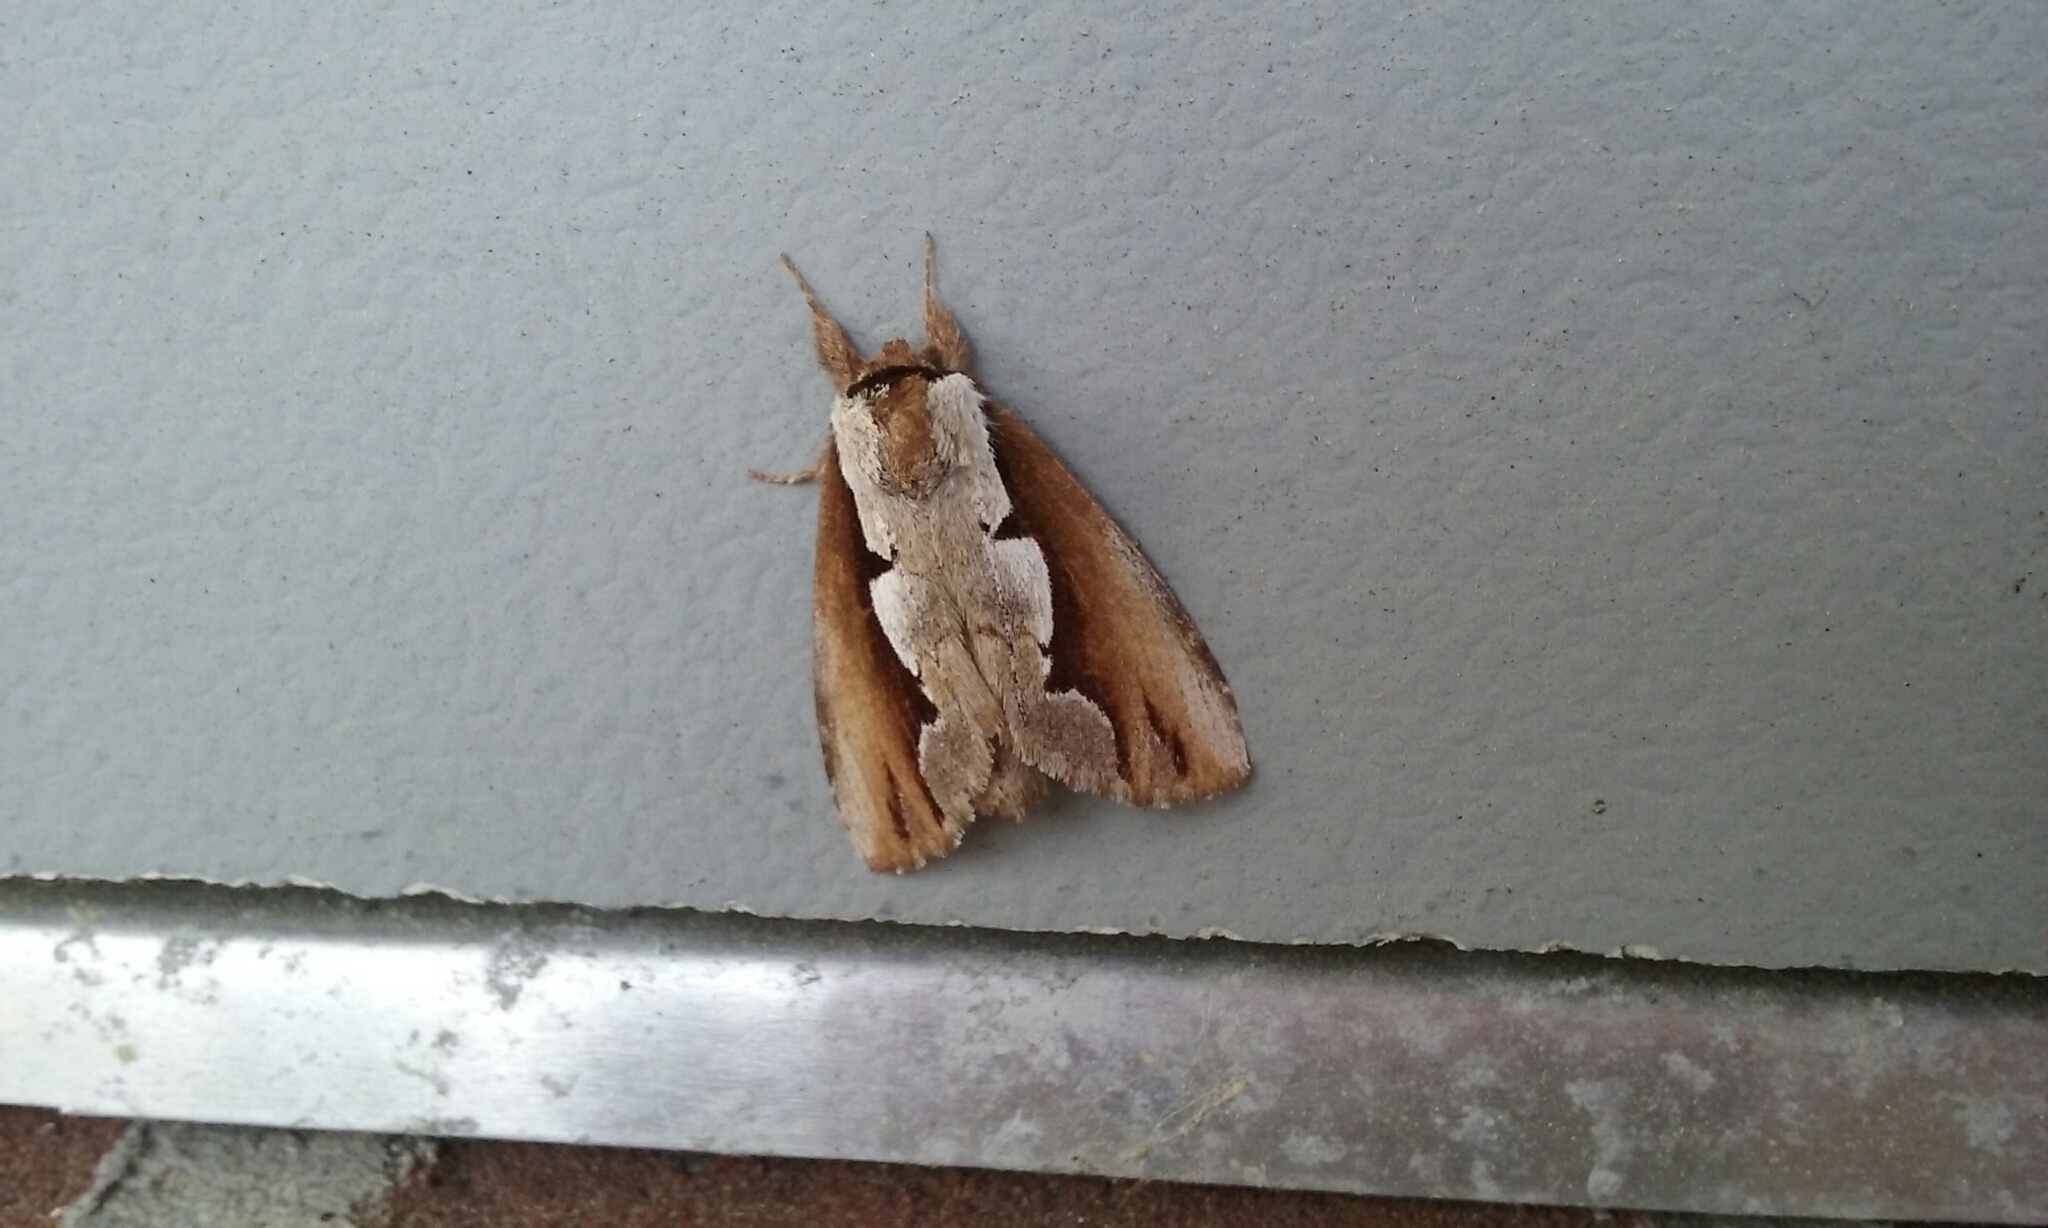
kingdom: Animalia
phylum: Arthropoda
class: Insecta
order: Lepidoptera
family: Notodontidae
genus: Nerice
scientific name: Nerice bidentata
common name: Double-toothed prominent
